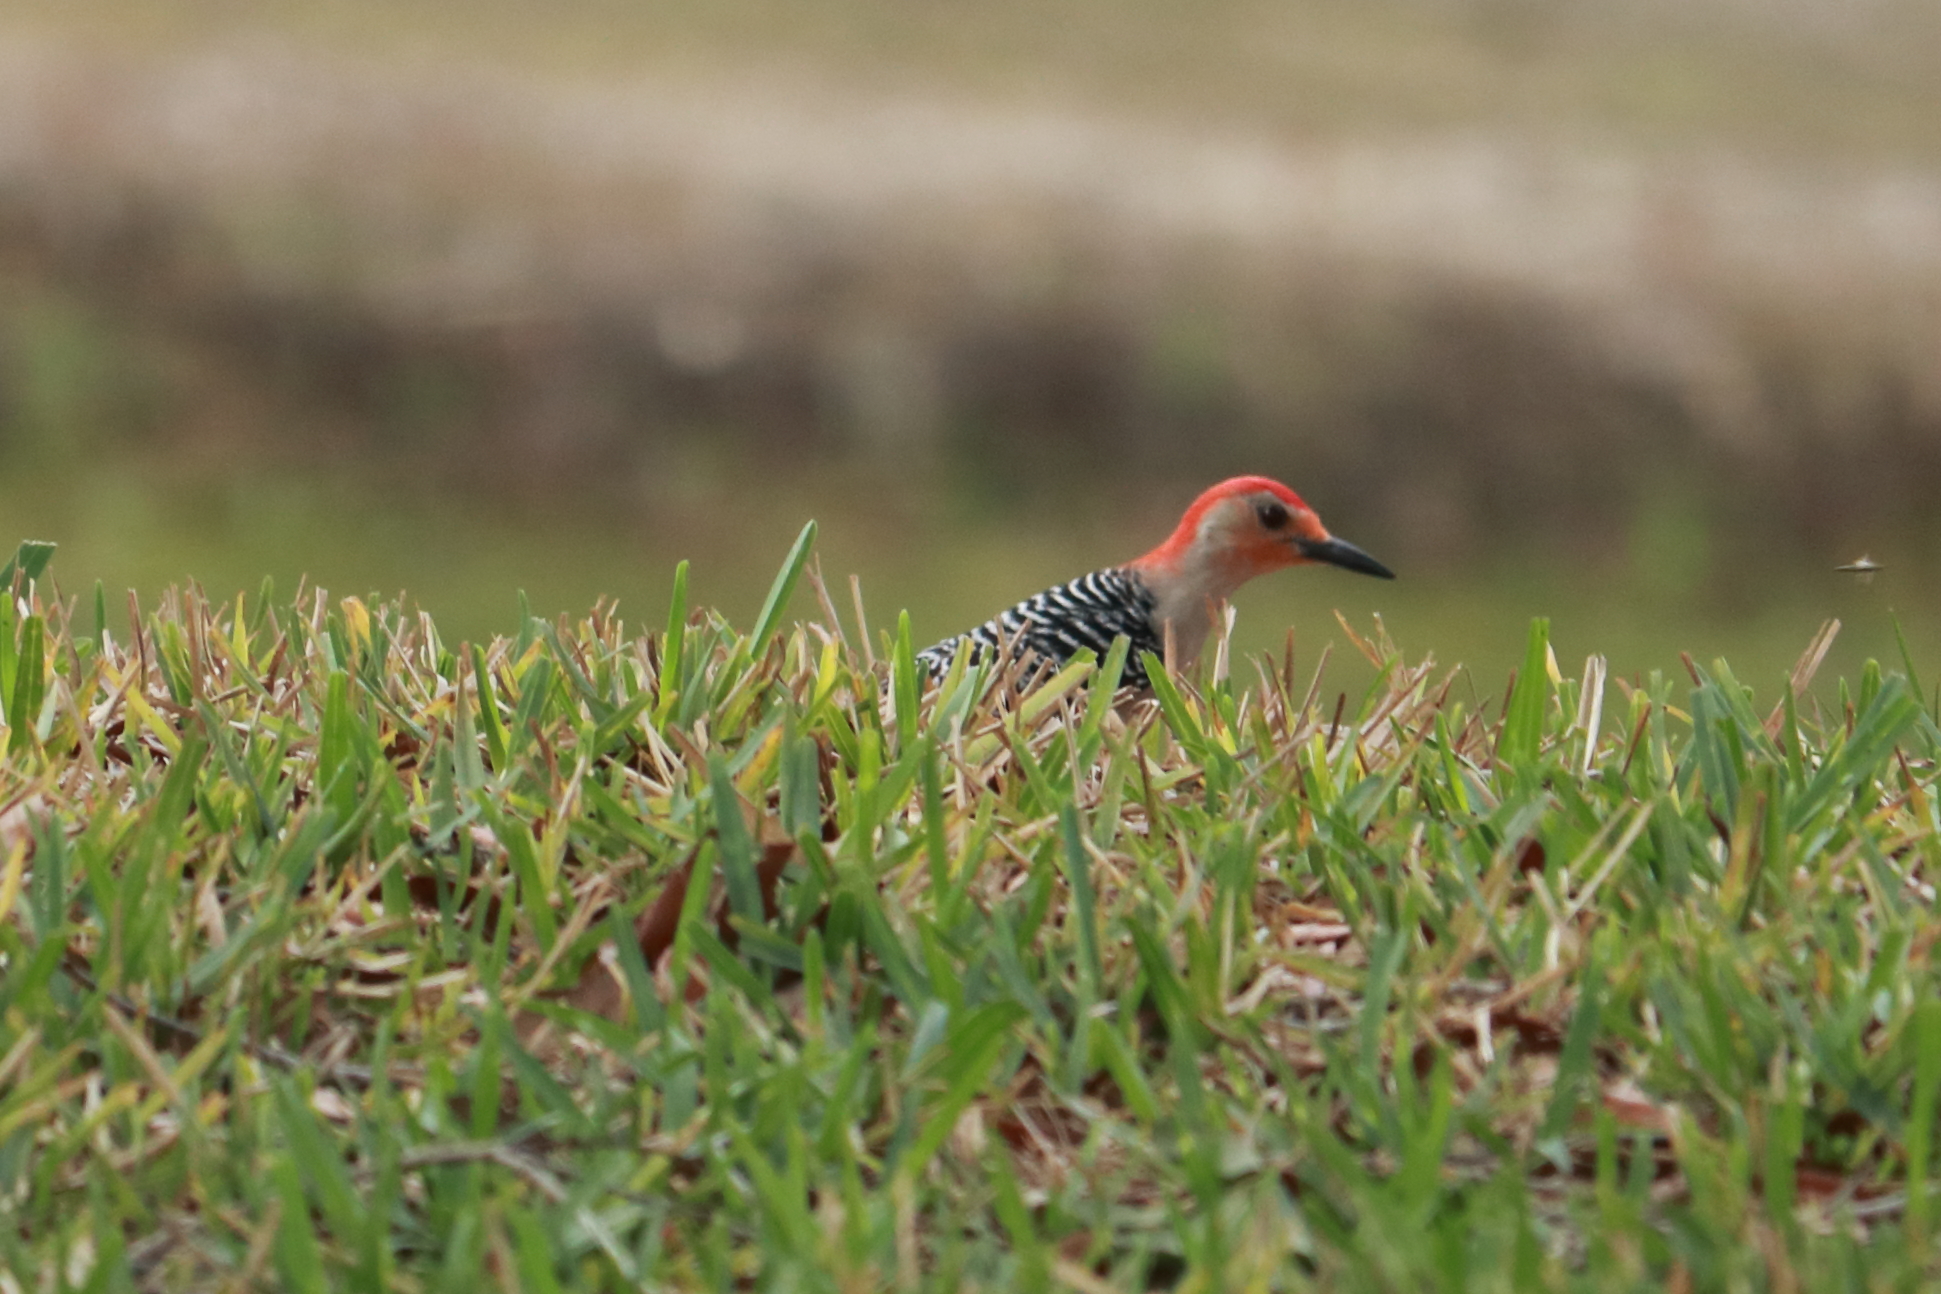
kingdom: Animalia
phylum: Chordata
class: Aves
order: Piciformes
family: Picidae
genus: Melanerpes
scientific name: Melanerpes carolinus
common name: Red-bellied woodpecker
